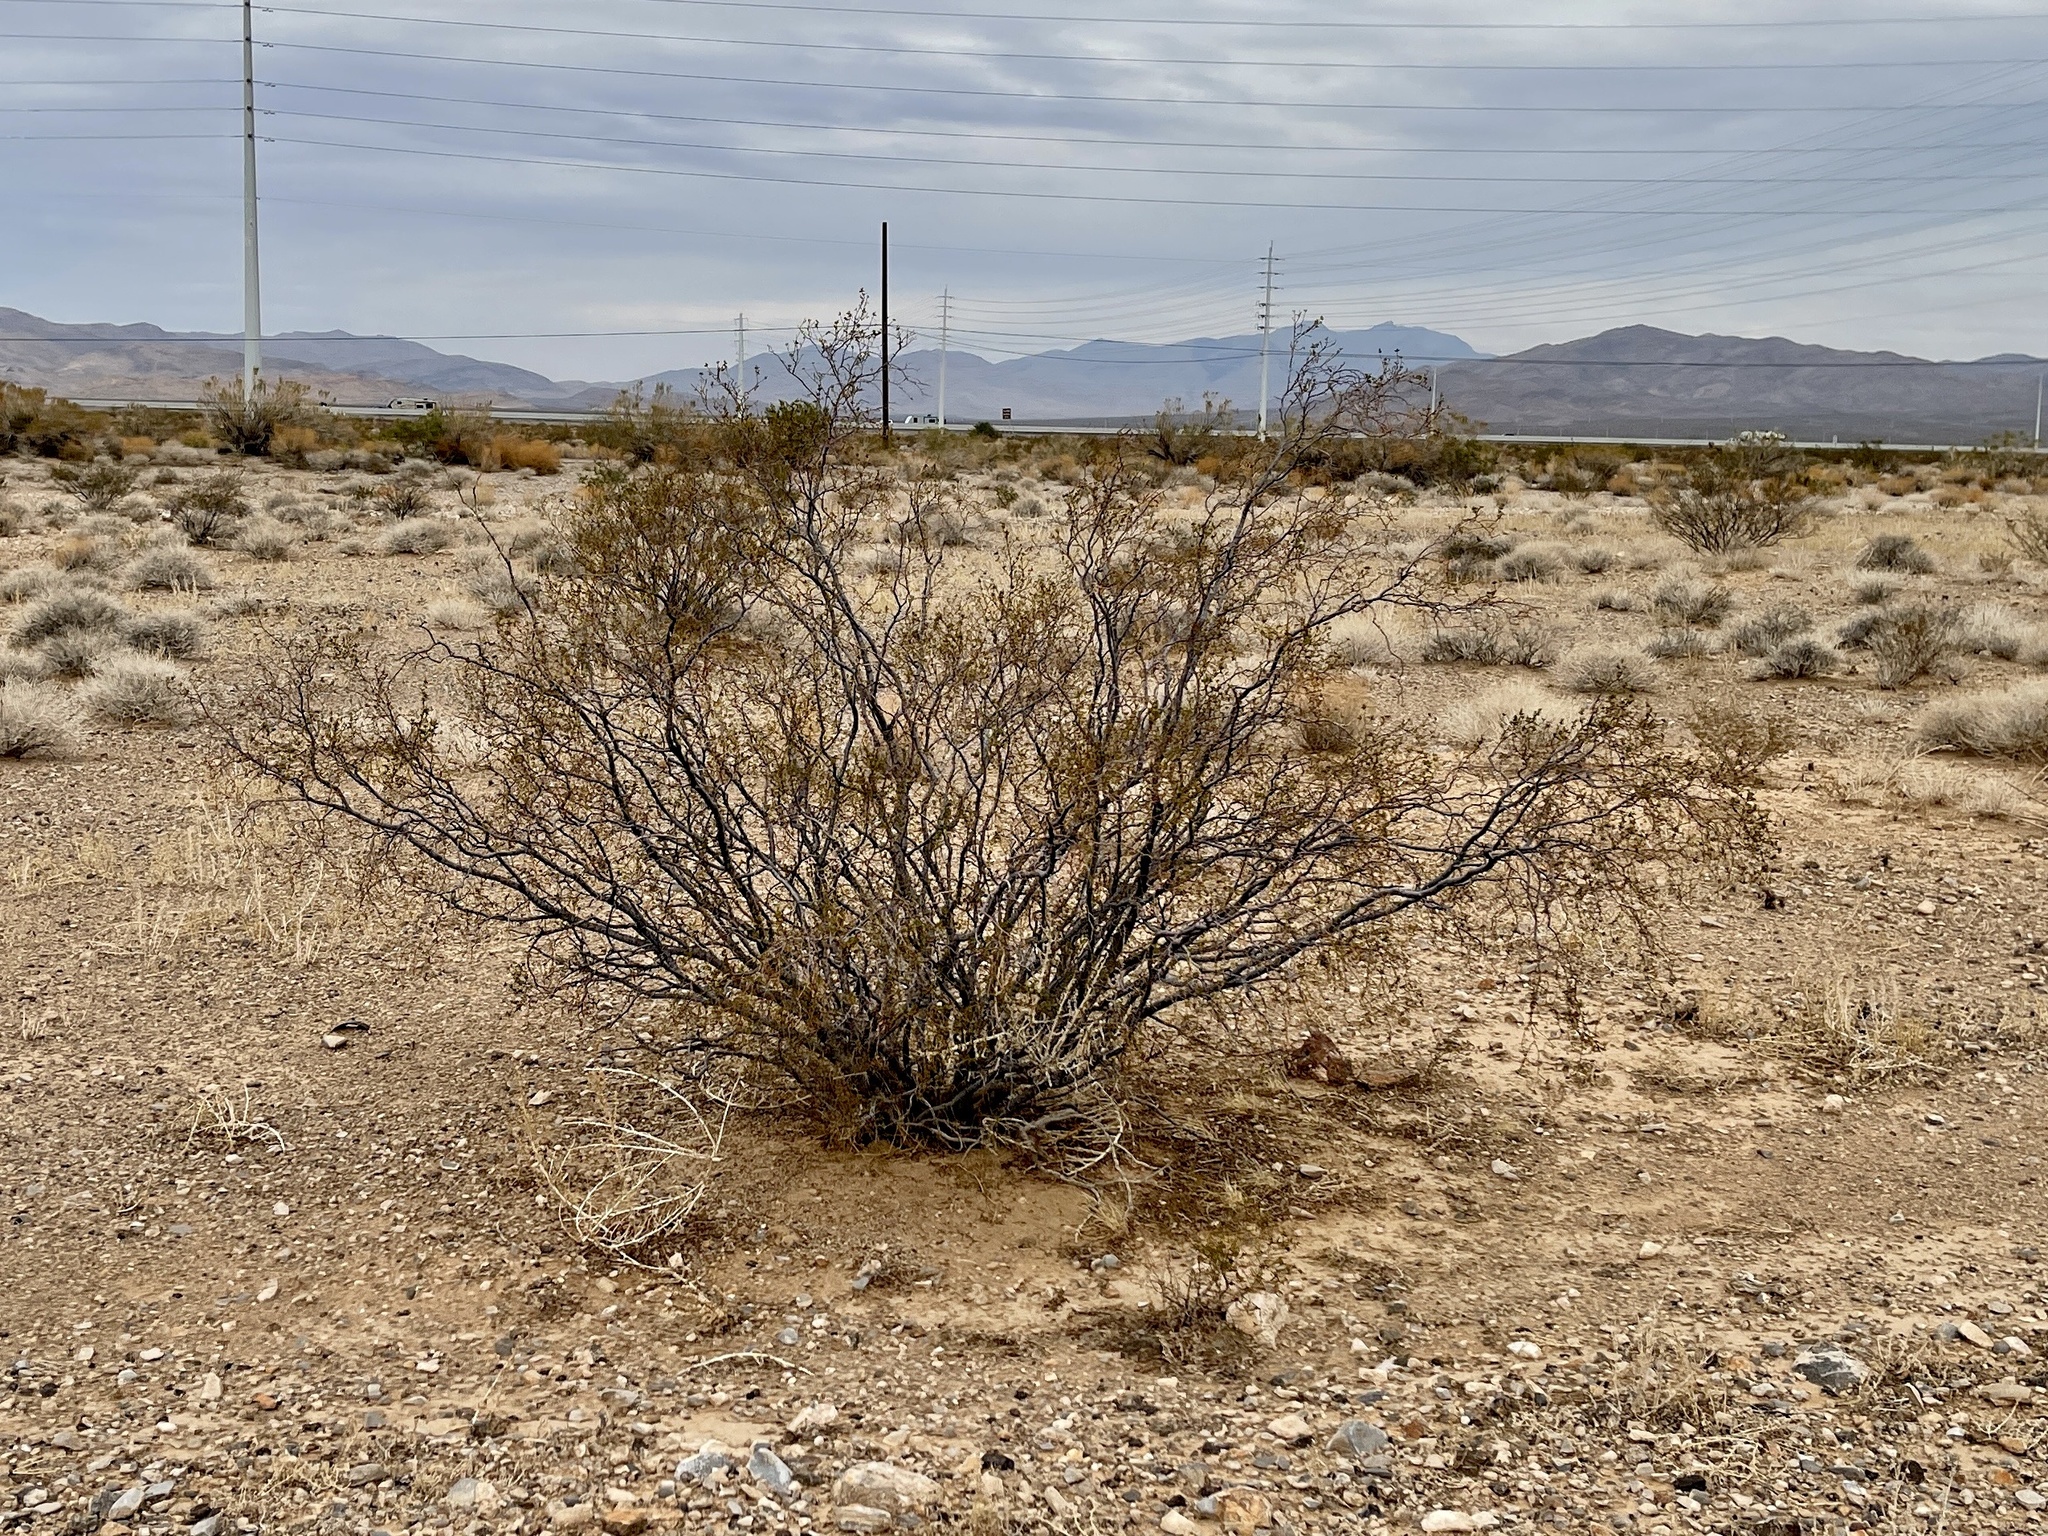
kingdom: Plantae
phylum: Tracheophyta
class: Magnoliopsida
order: Zygophyllales
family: Zygophyllaceae
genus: Larrea
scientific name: Larrea tridentata
